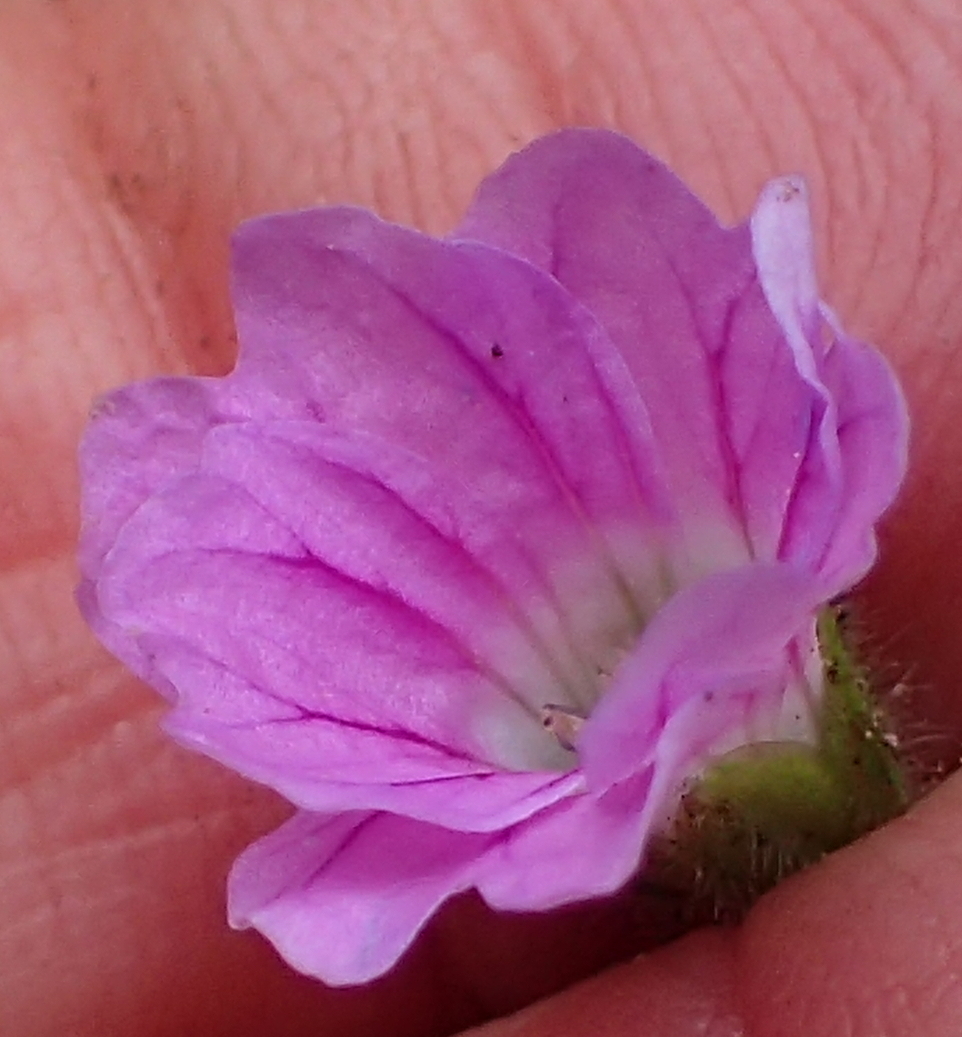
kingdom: Plantae
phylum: Tracheophyta
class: Magnoliopsida
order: Geraniales
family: Geraniaceae
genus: Geranium
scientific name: Geranium schlechteri
